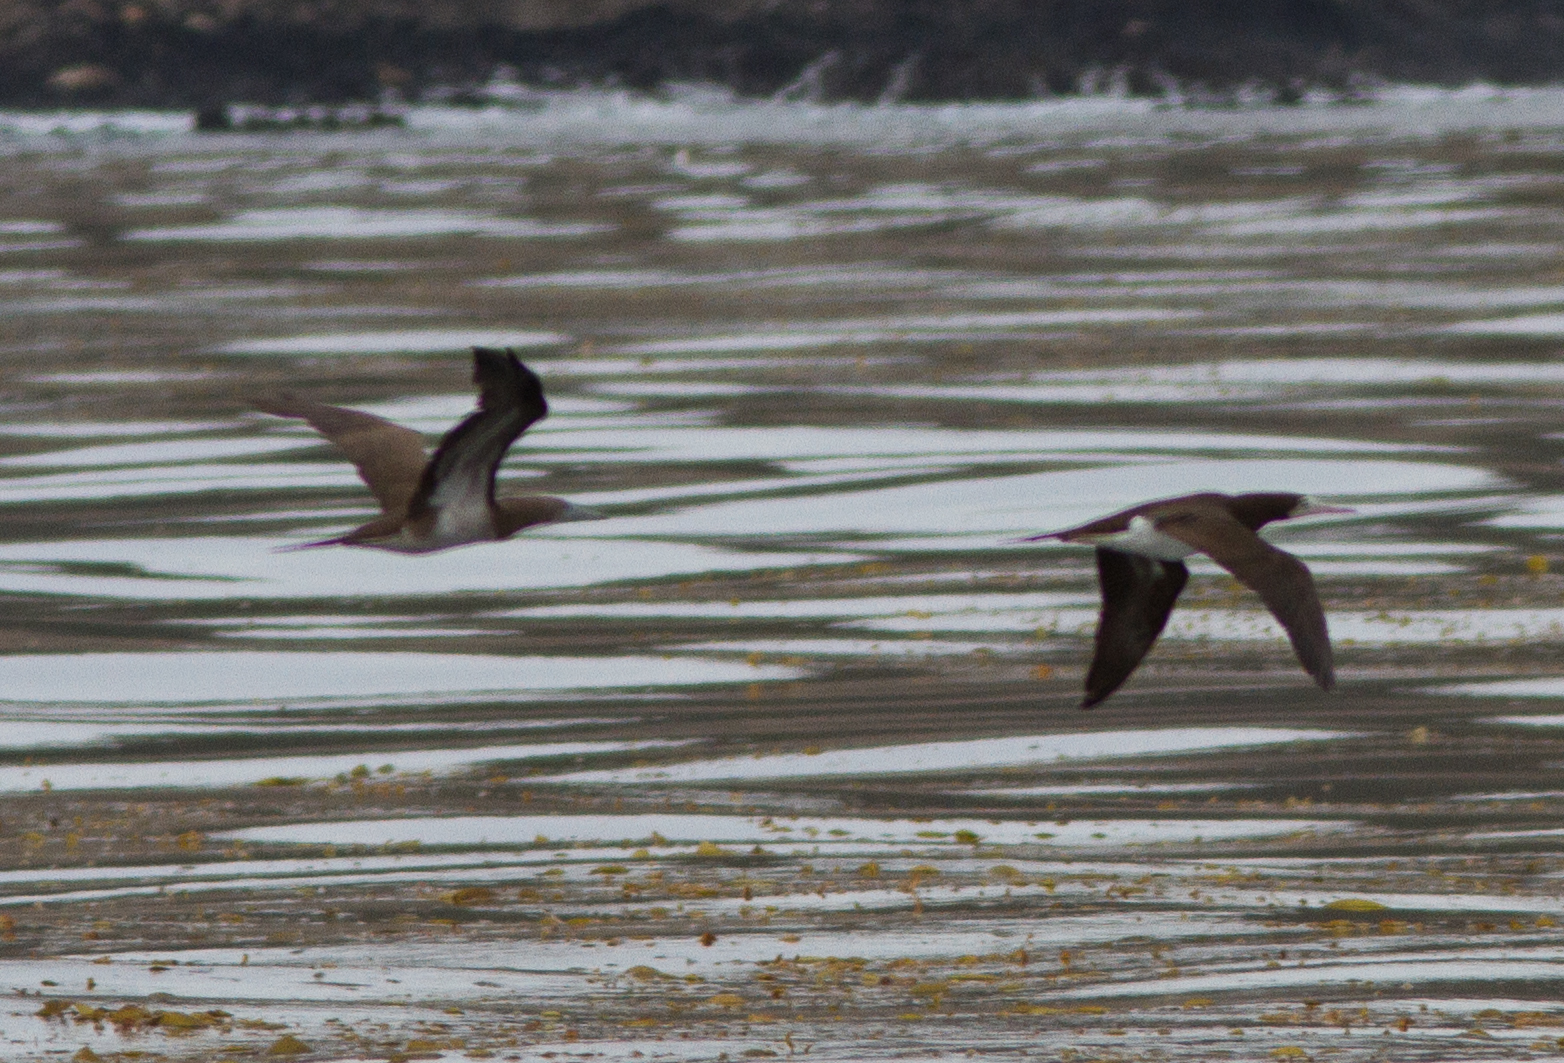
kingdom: Animalia
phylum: Chordata
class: Aves
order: Suliformes
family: Sulidae
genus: Sula
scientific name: Sula leucogaster
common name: Brown booby
